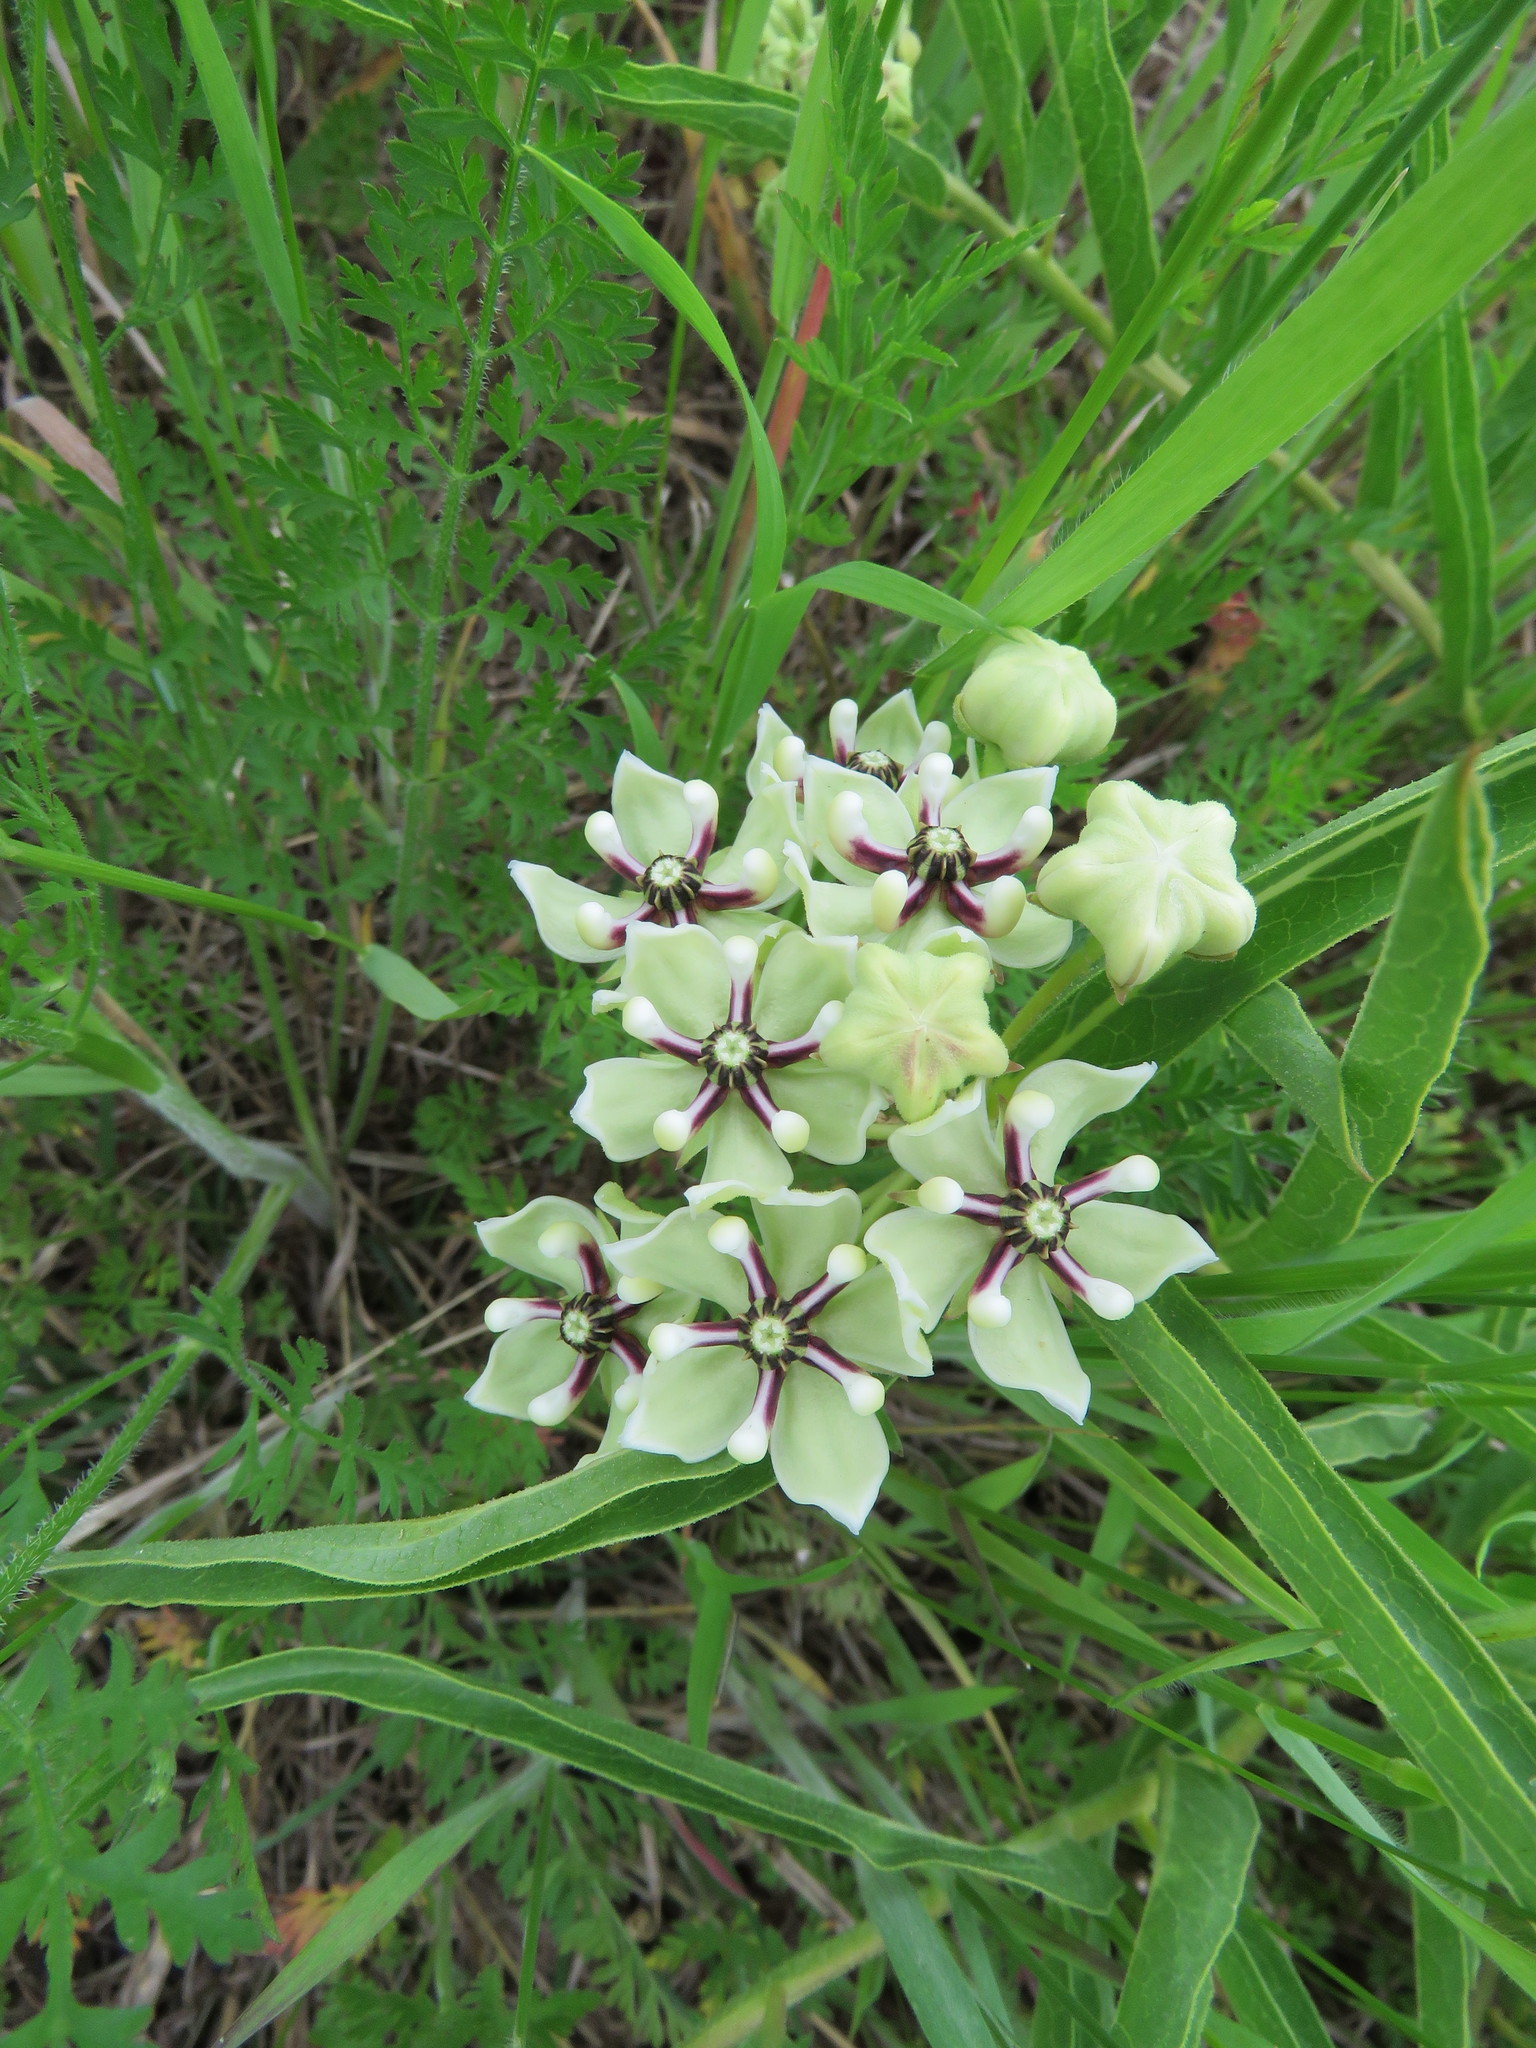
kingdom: Plantae
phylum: Tracheophyta
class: Magnoliopsida
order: Gentianales
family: Apocynaceae
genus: Asclepias
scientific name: Asclepias asperula
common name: Antelope horns
